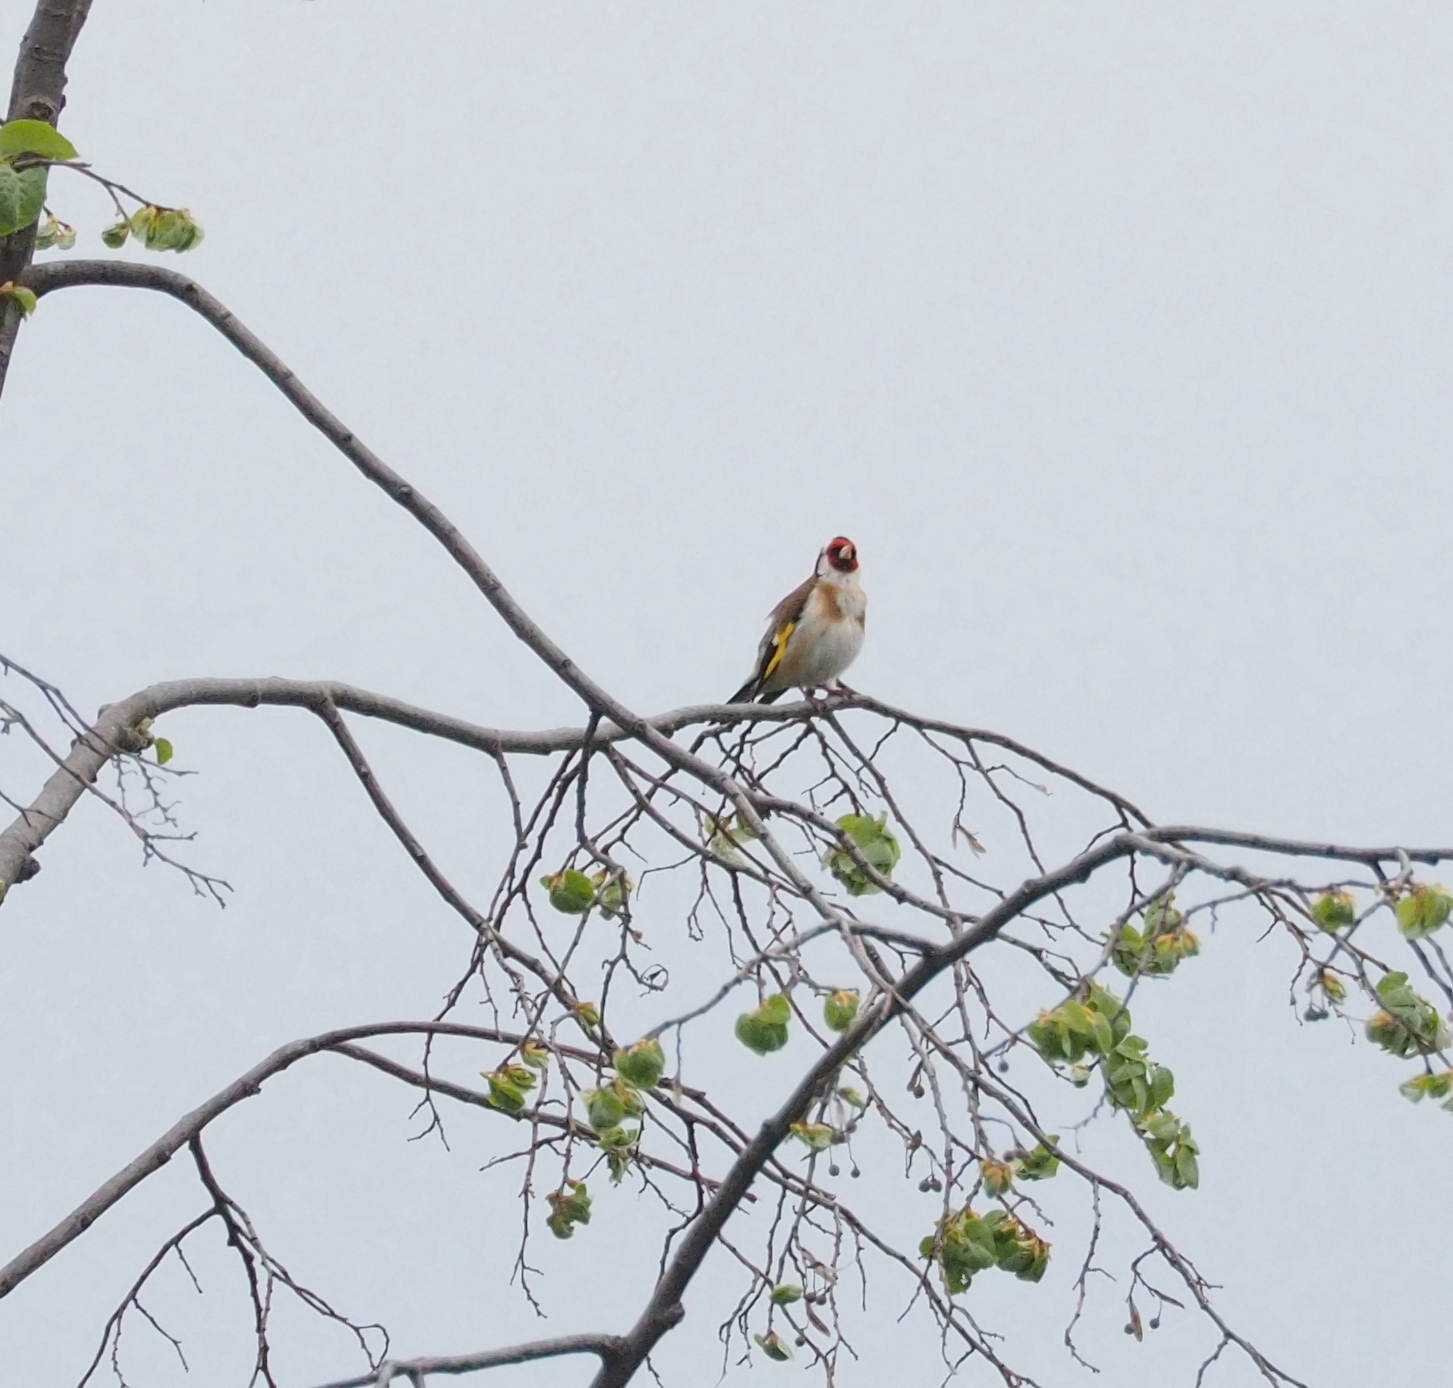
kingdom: Animalia
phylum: Chordata
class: Aves
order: Passeriformes
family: Fringillidae
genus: Carduelis
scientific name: Carduelis carduelis
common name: European goldfinch
